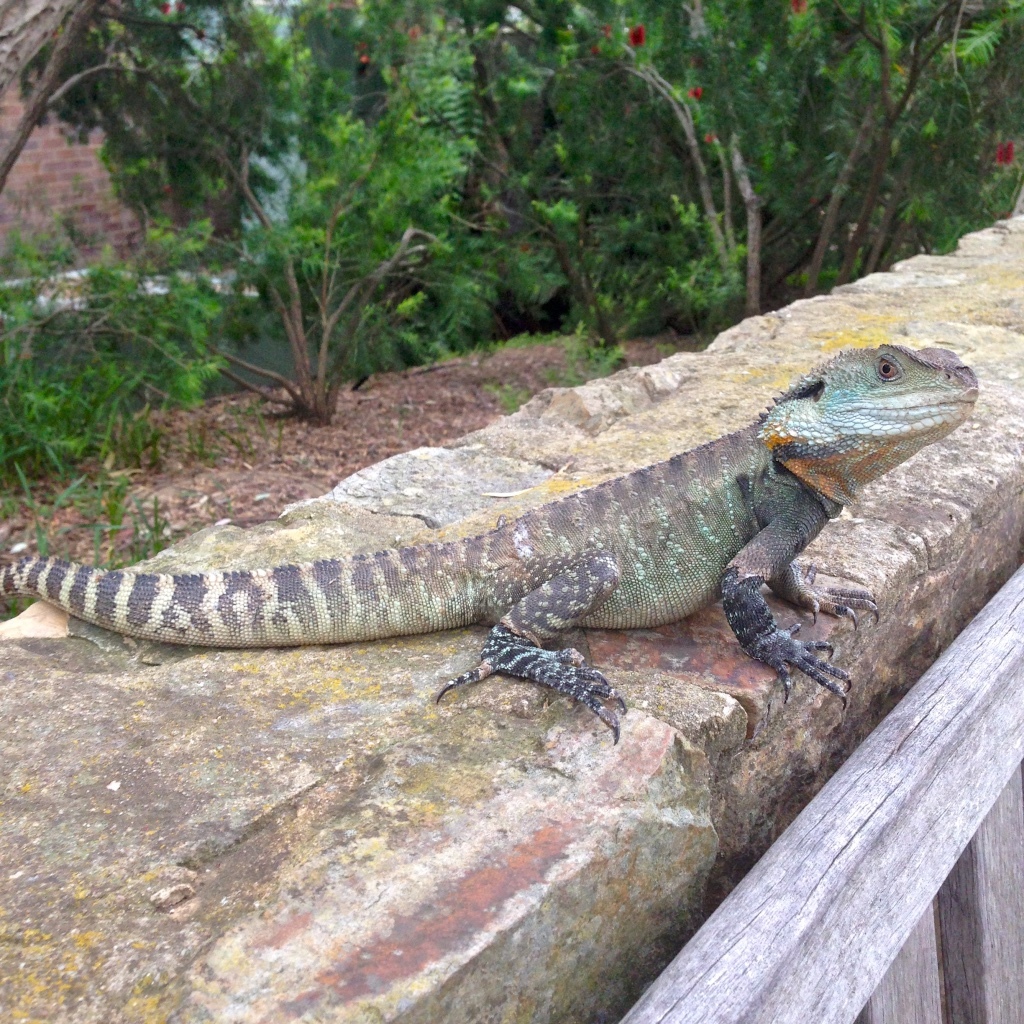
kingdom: Animalia
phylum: Chordata
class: Squamata
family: Agamidae
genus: Intellagama
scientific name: Intellagama lesueurii
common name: Eastern water dragon
